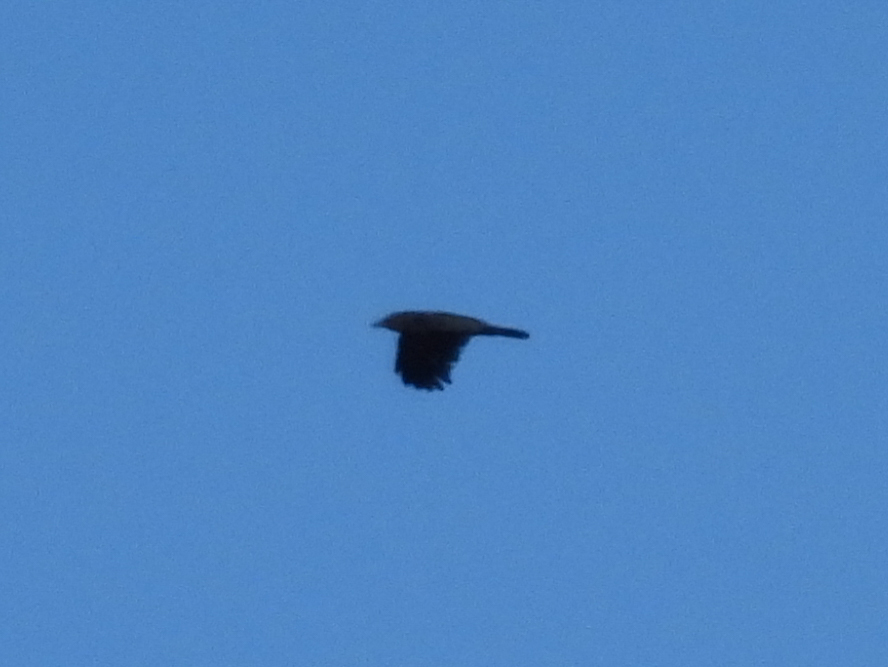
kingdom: Animalia
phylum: Chordata
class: Aves
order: Passeriformes
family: Corvidae
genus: Corvus
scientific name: Corvus brachyrhynchos
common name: American crow
